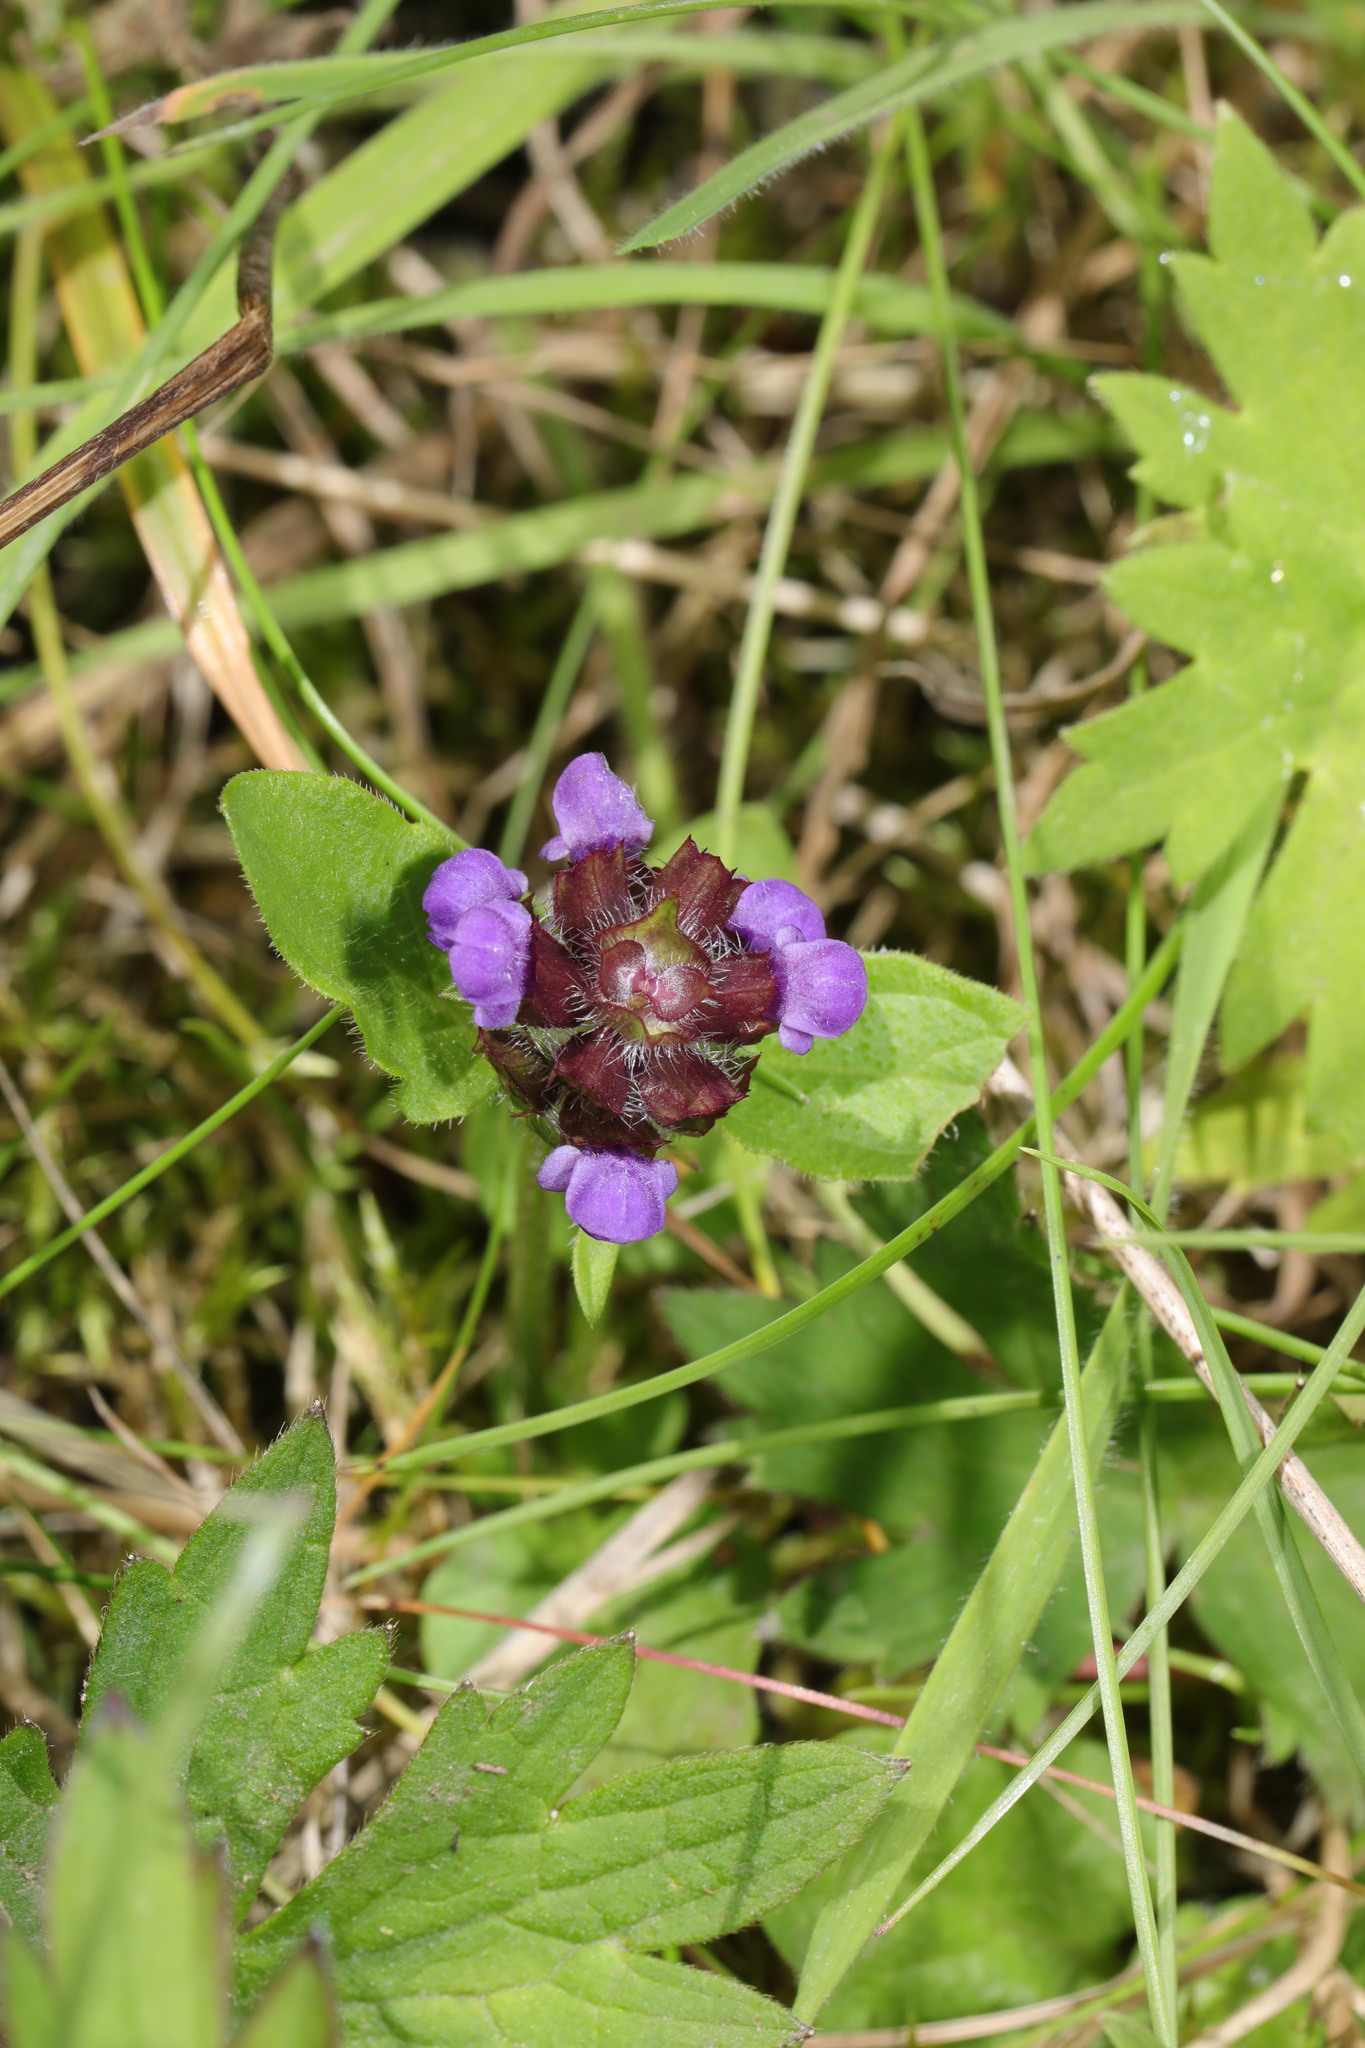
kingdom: Plantae
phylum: Tracheophyta
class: Magnoliopsida
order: Lamiales
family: Lamiaceae
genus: Prunella
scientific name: Prunella vulgaris
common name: Heal-all
